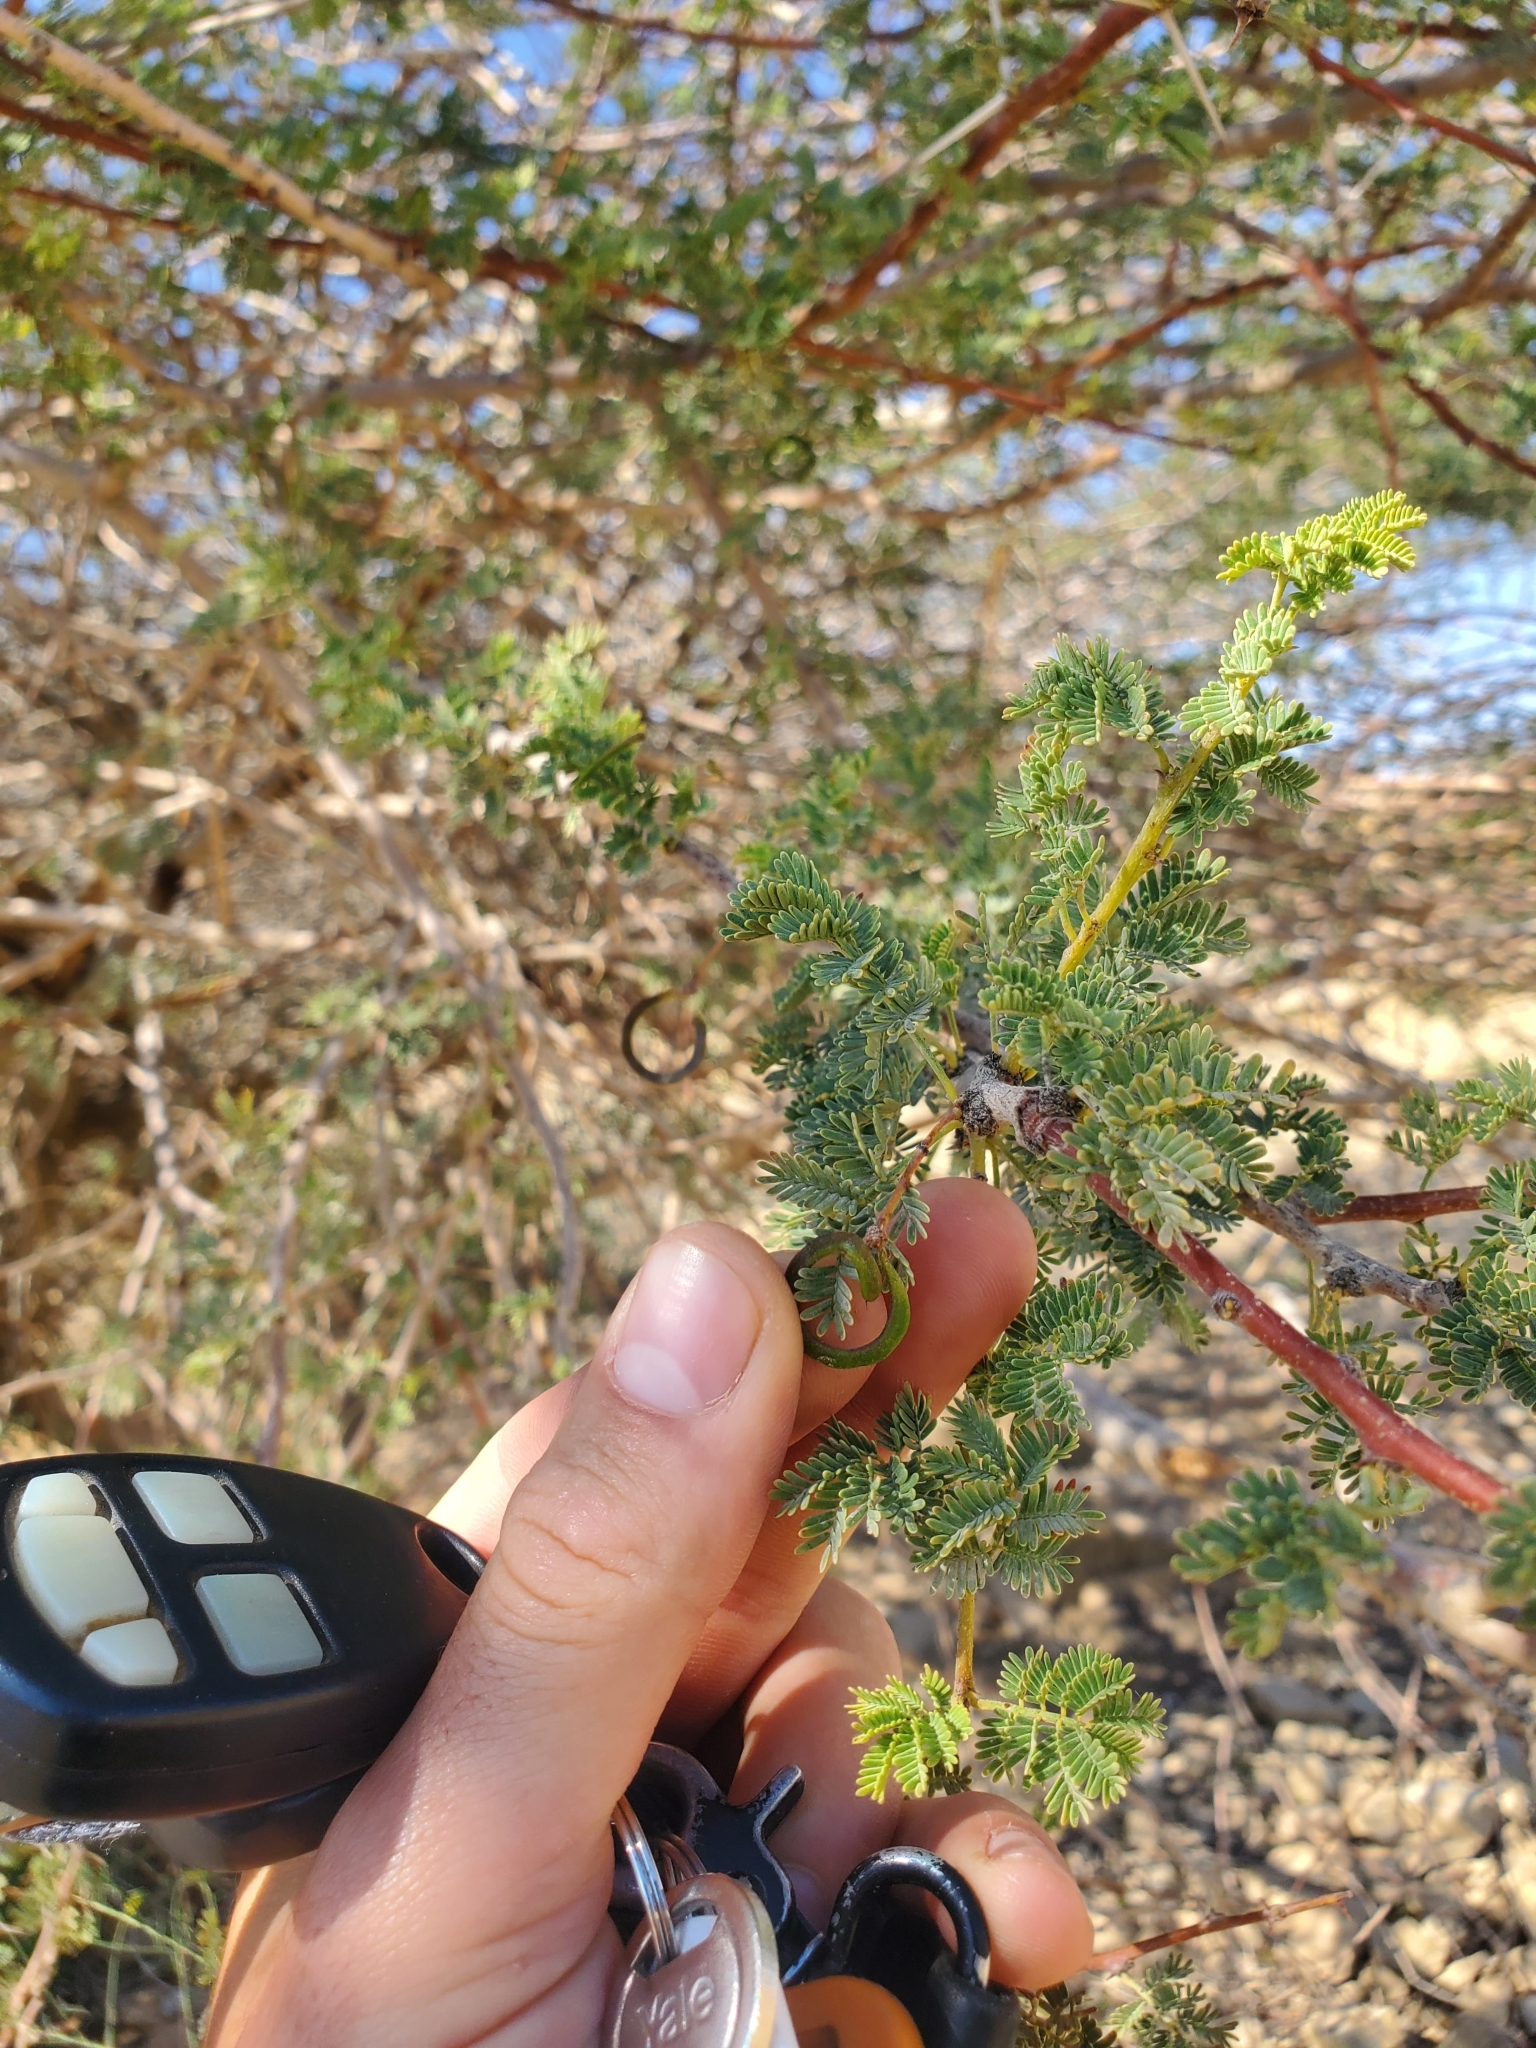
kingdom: Plantae
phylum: Tracheophyta
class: Magnoliopsida
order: Fabales
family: Fabaceae
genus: Vachellia
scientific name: Vachellia tortilis
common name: Umbrella thorn acacia
